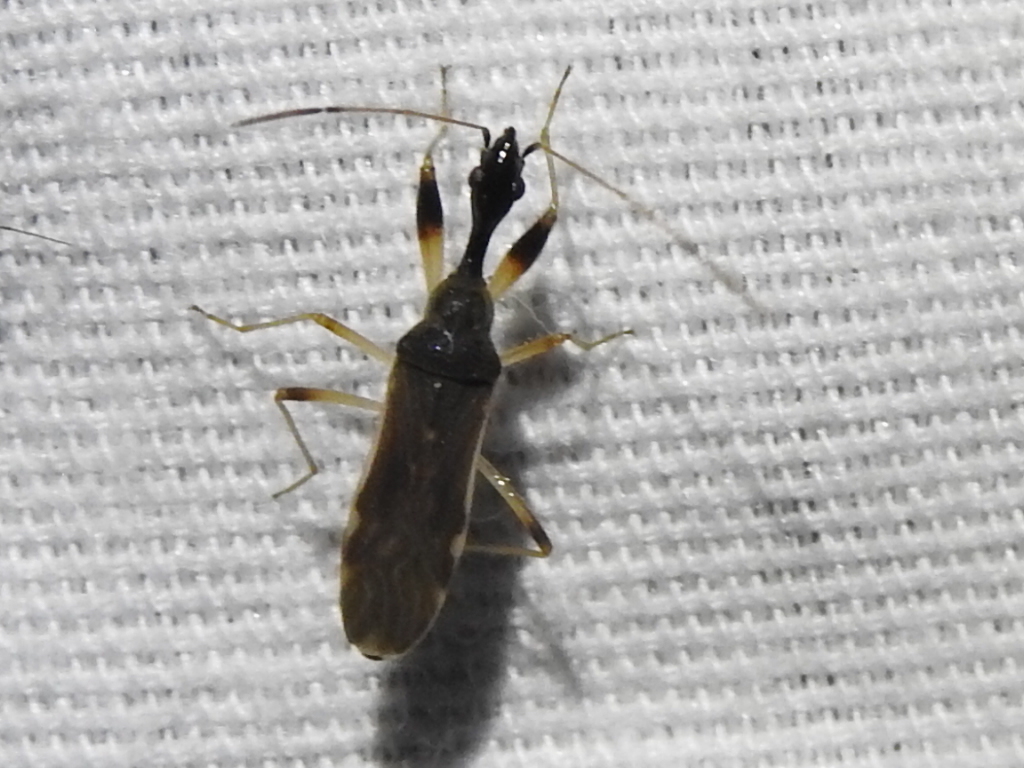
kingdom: Animalia
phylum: Arthropoda
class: Insecta
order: Hemiptera
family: Rhyparochromidae
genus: Myodocha
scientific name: Myodocha serripes
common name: Long-necked seed bug
